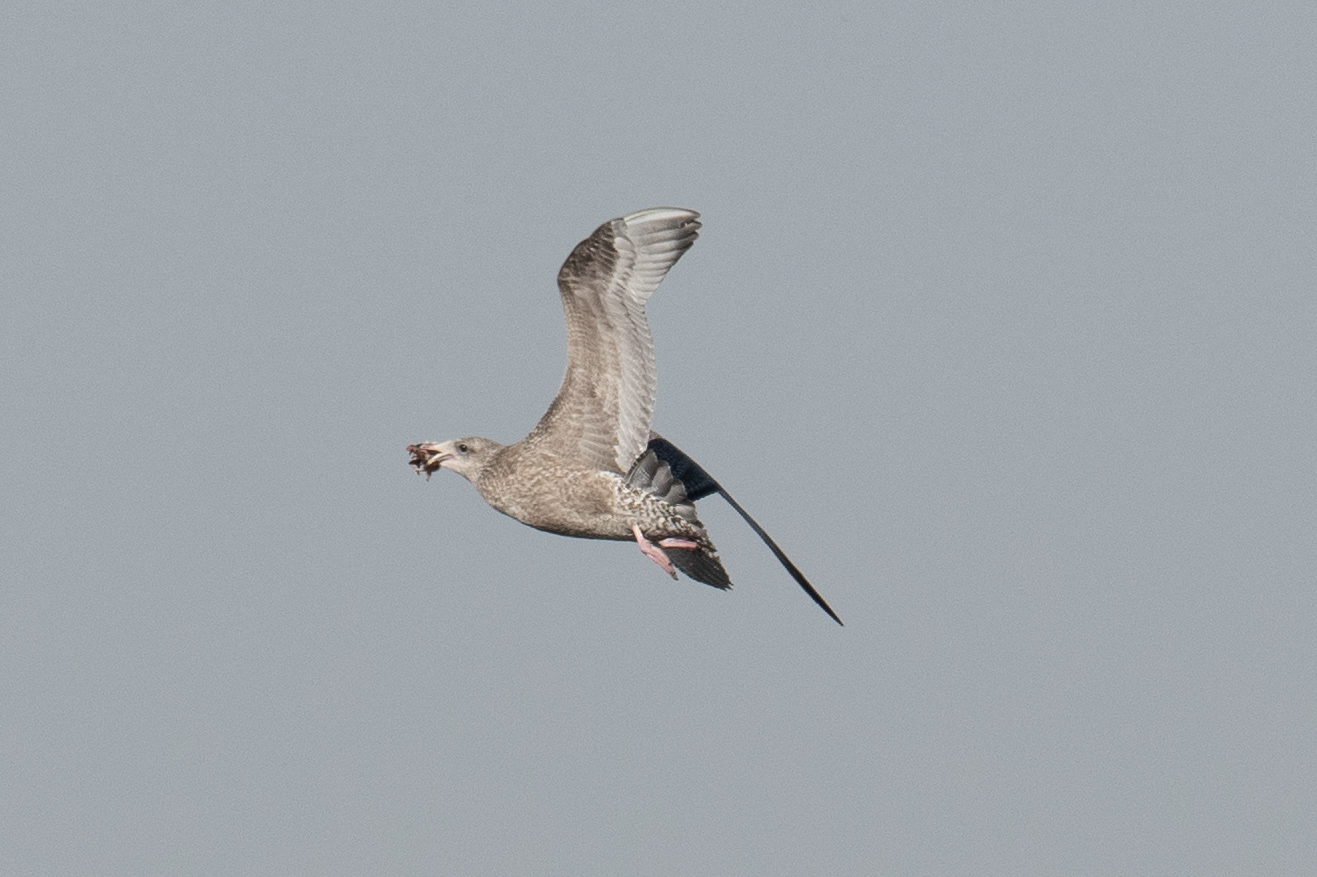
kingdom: Animalia
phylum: Chordata
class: Aves
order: Charadriiformes
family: Laridae
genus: Larus
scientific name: Larus argentatus
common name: Herring gull
